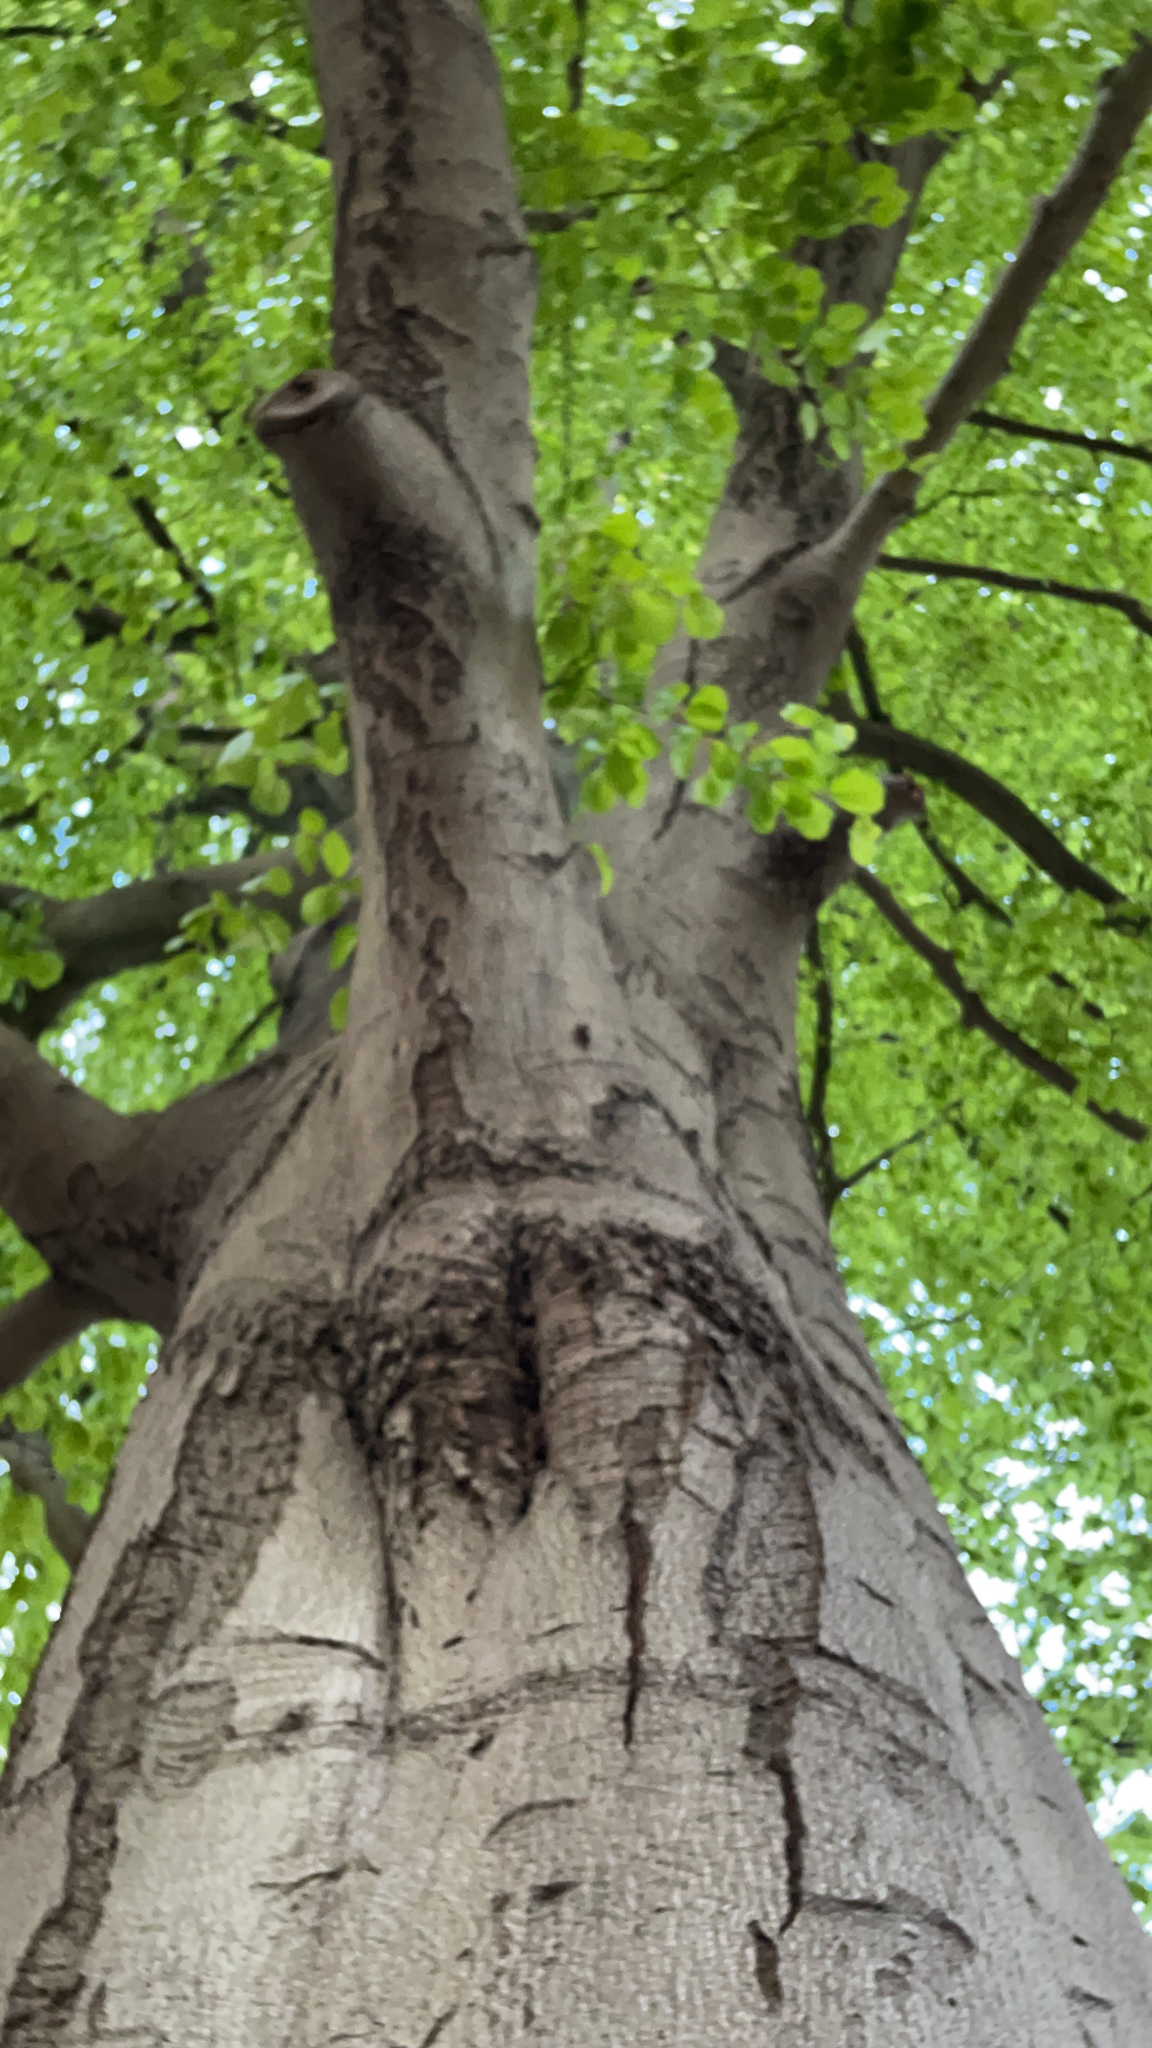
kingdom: Plantae
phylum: Tracheophyta
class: Magnoliopsida
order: Fagales
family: Fagaceae
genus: Fagus
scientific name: Fagus sylvatica
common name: Beech
